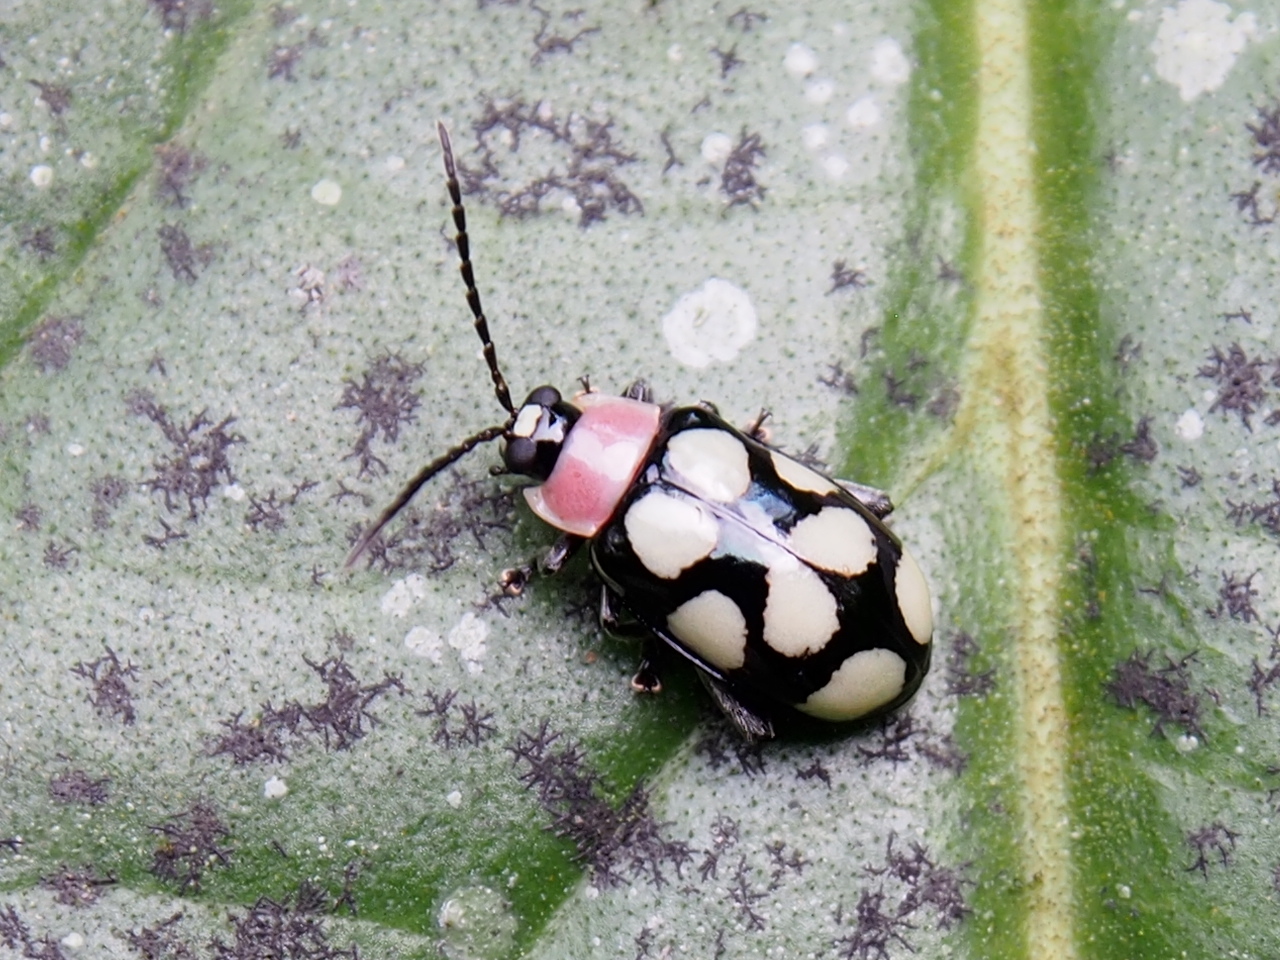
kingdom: Animalia
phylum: Arthropoda
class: Insecta
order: Coleoptera
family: Chrysomelidae
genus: Omophoita
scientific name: Omophoita aequinoctialis
